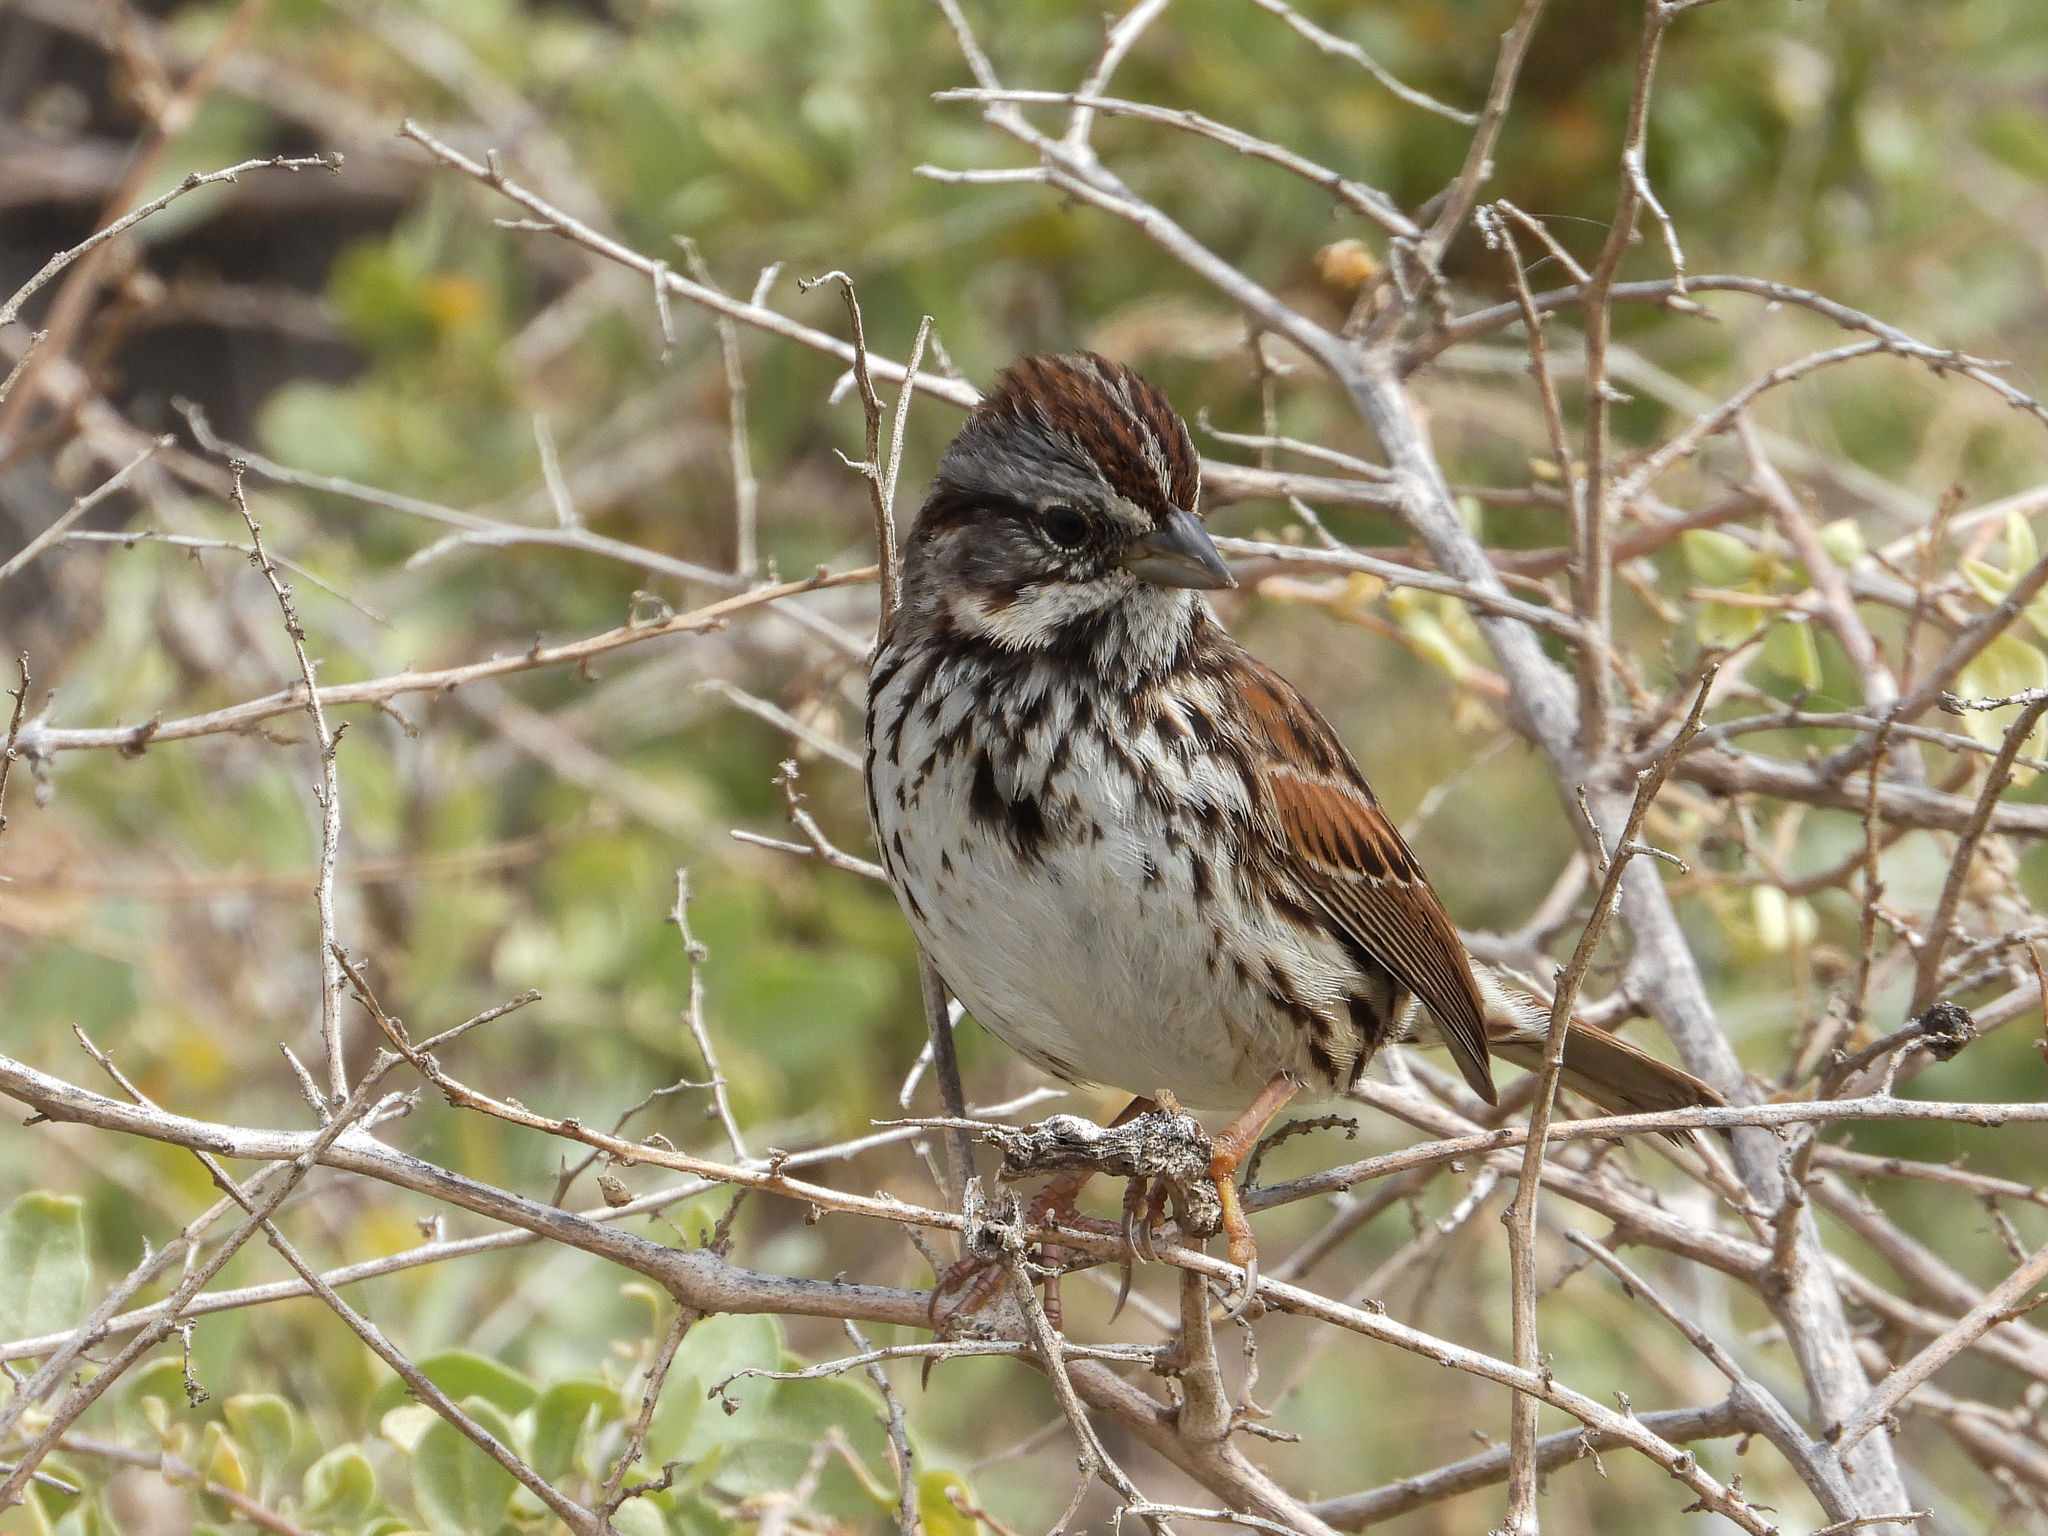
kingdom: Animalia
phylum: Chordata
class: Aves
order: Passeriformes
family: Passerellidae
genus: Melospiza
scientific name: Melospiza melodia
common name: Song sparrow
